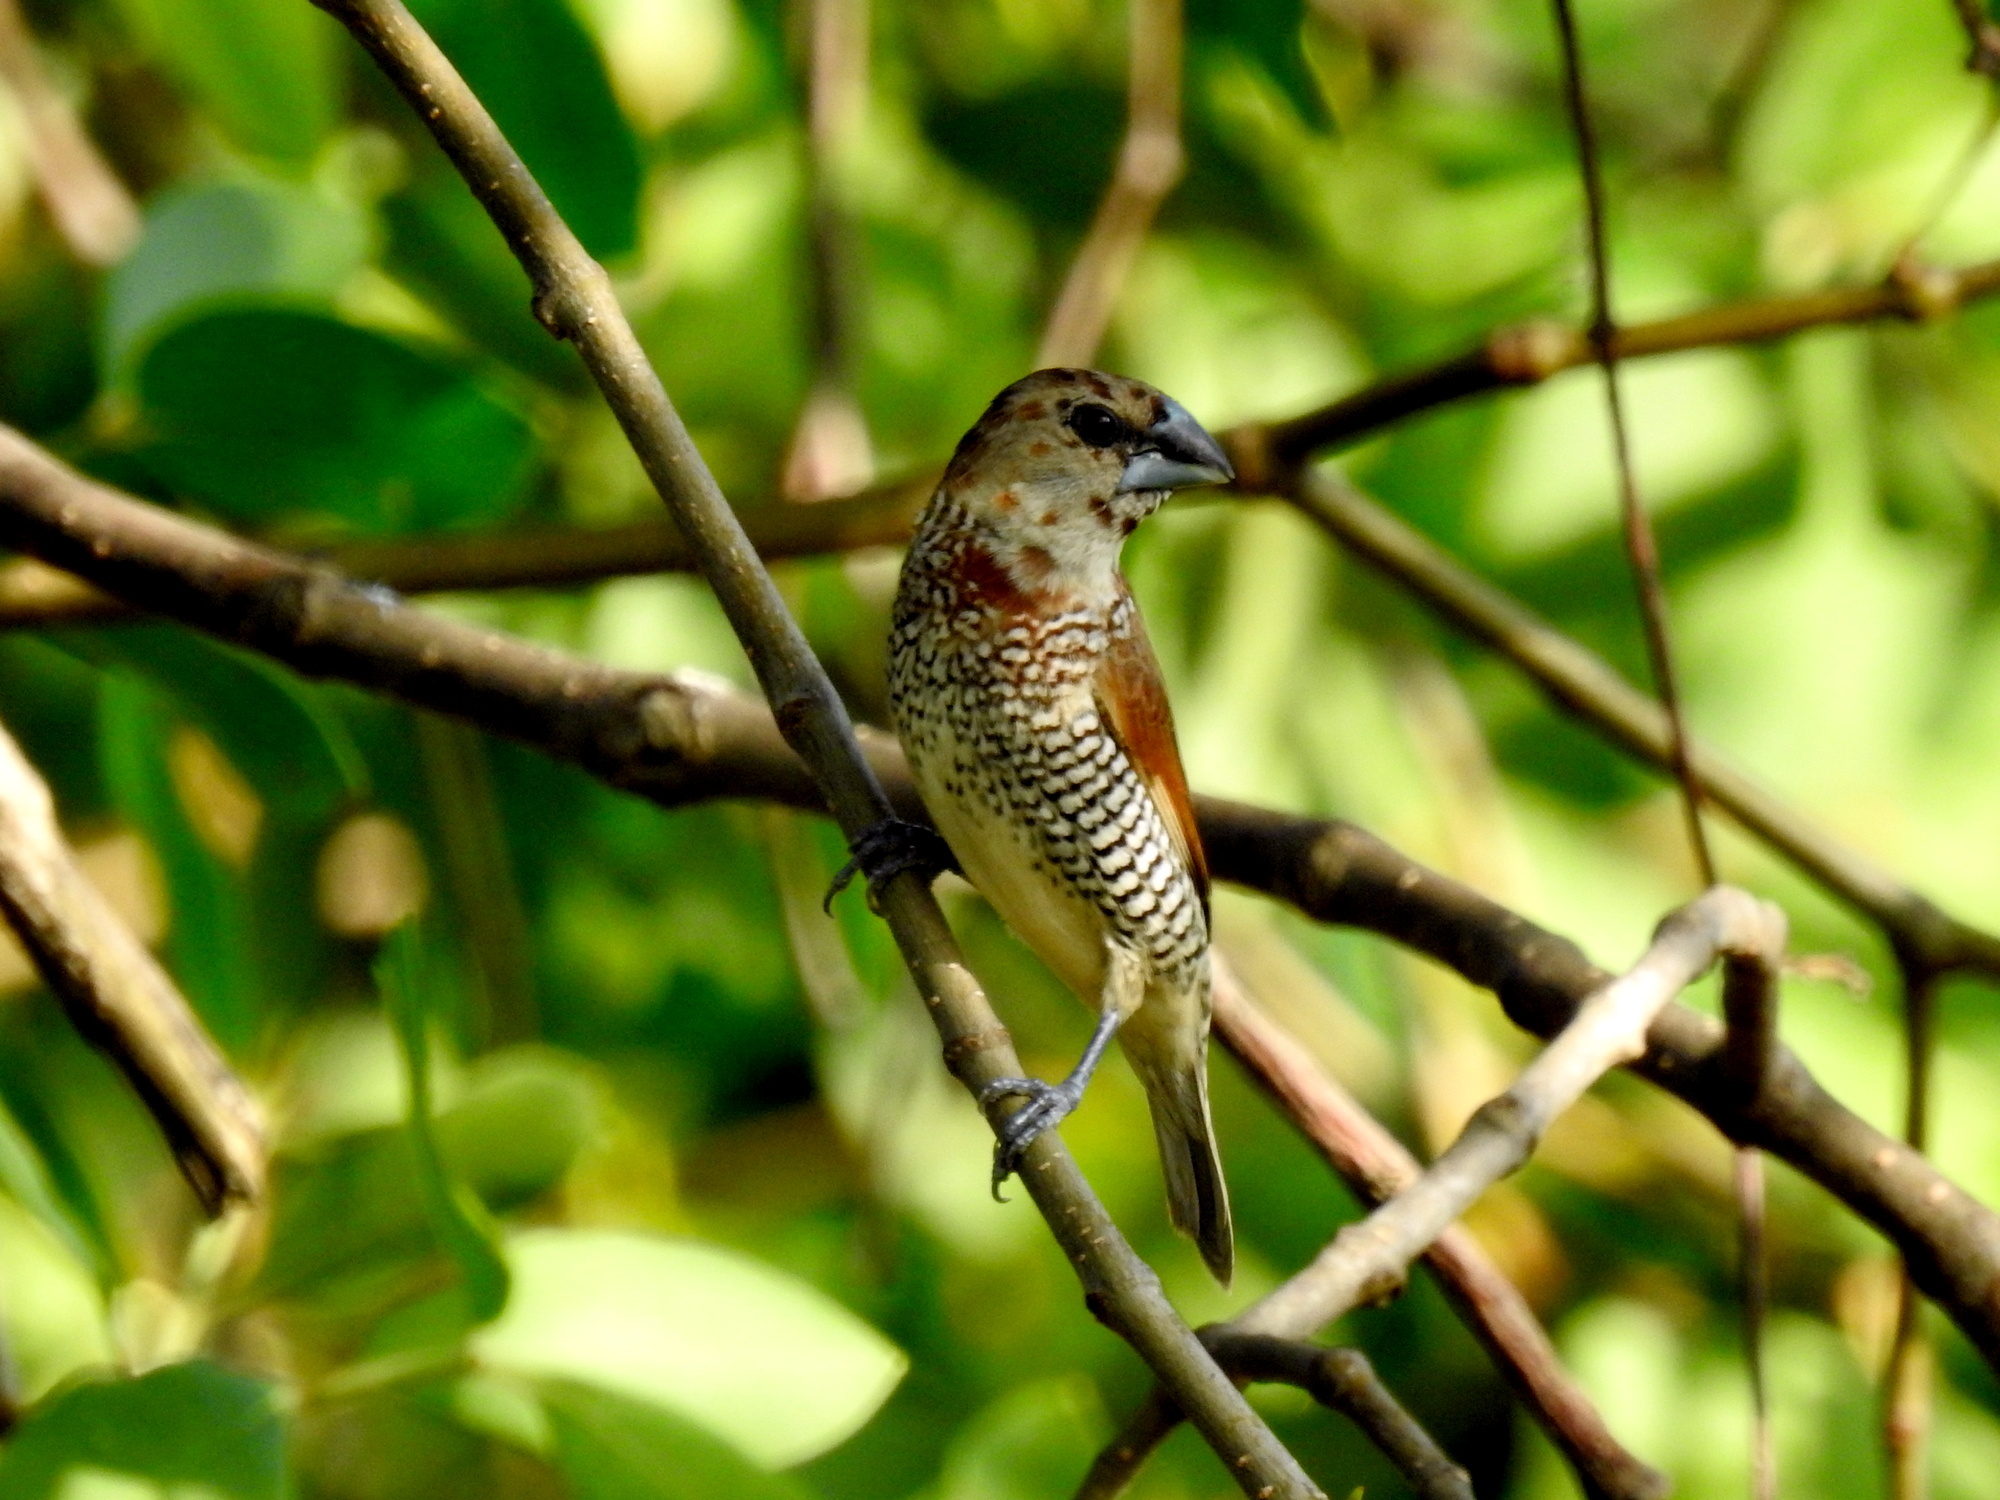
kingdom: Animalia
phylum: Chordata
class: Aves
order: Passeriformes
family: Estrildidae
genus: Lonchura
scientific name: Lonchura punctulata
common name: Scaly-breasted munia
